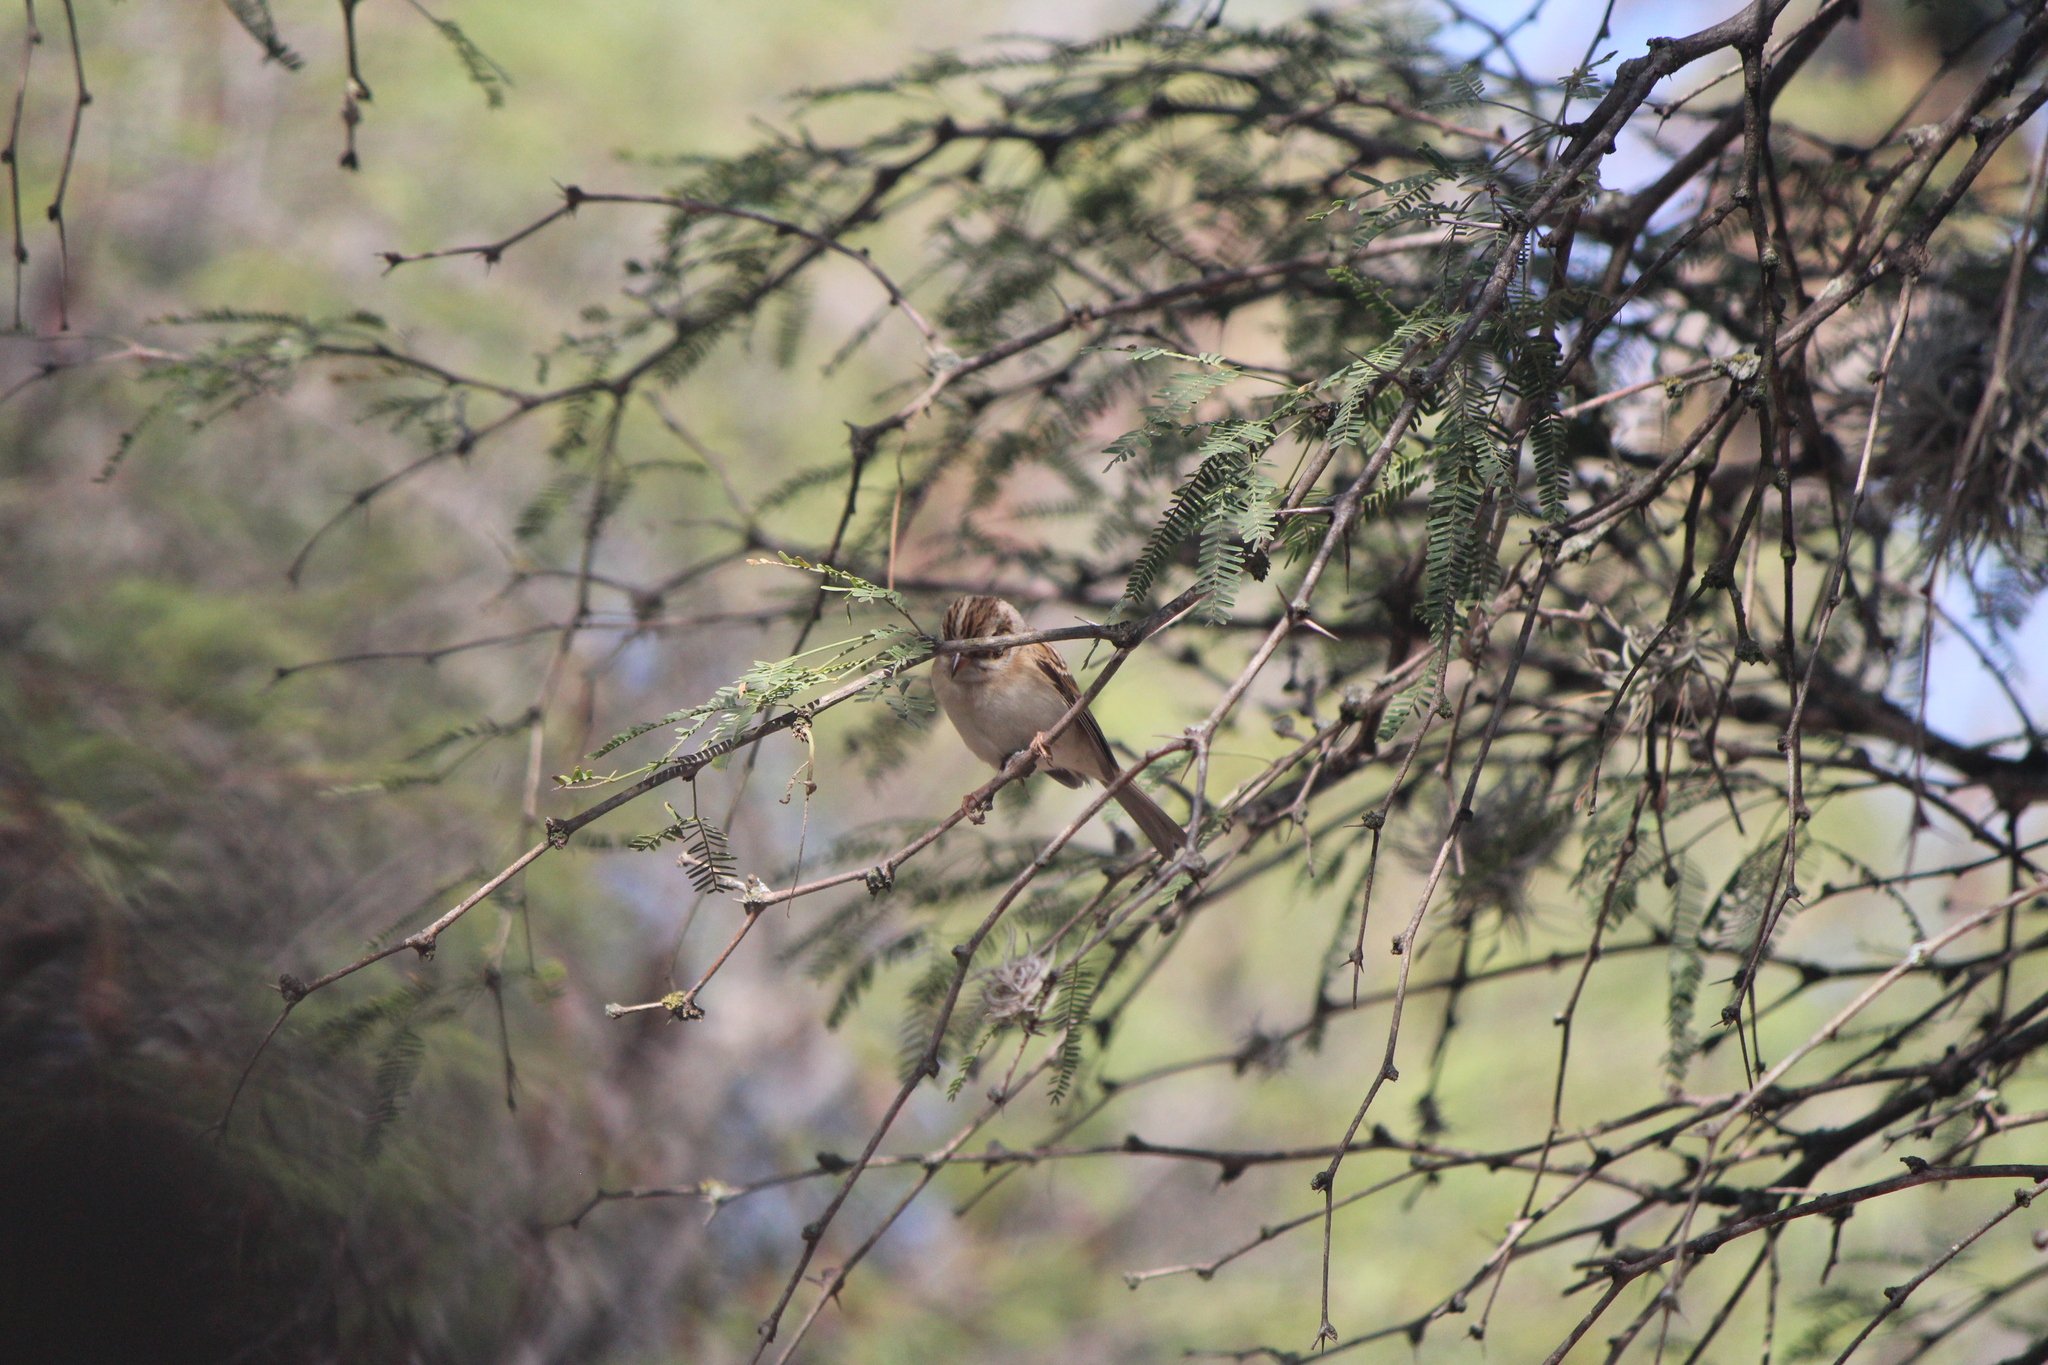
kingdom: Animalia
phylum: Chordata
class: Aves
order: Passeriformes
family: Passerellidae
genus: Spizella
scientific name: Spizella pallida
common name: Clay-colored sparrow
